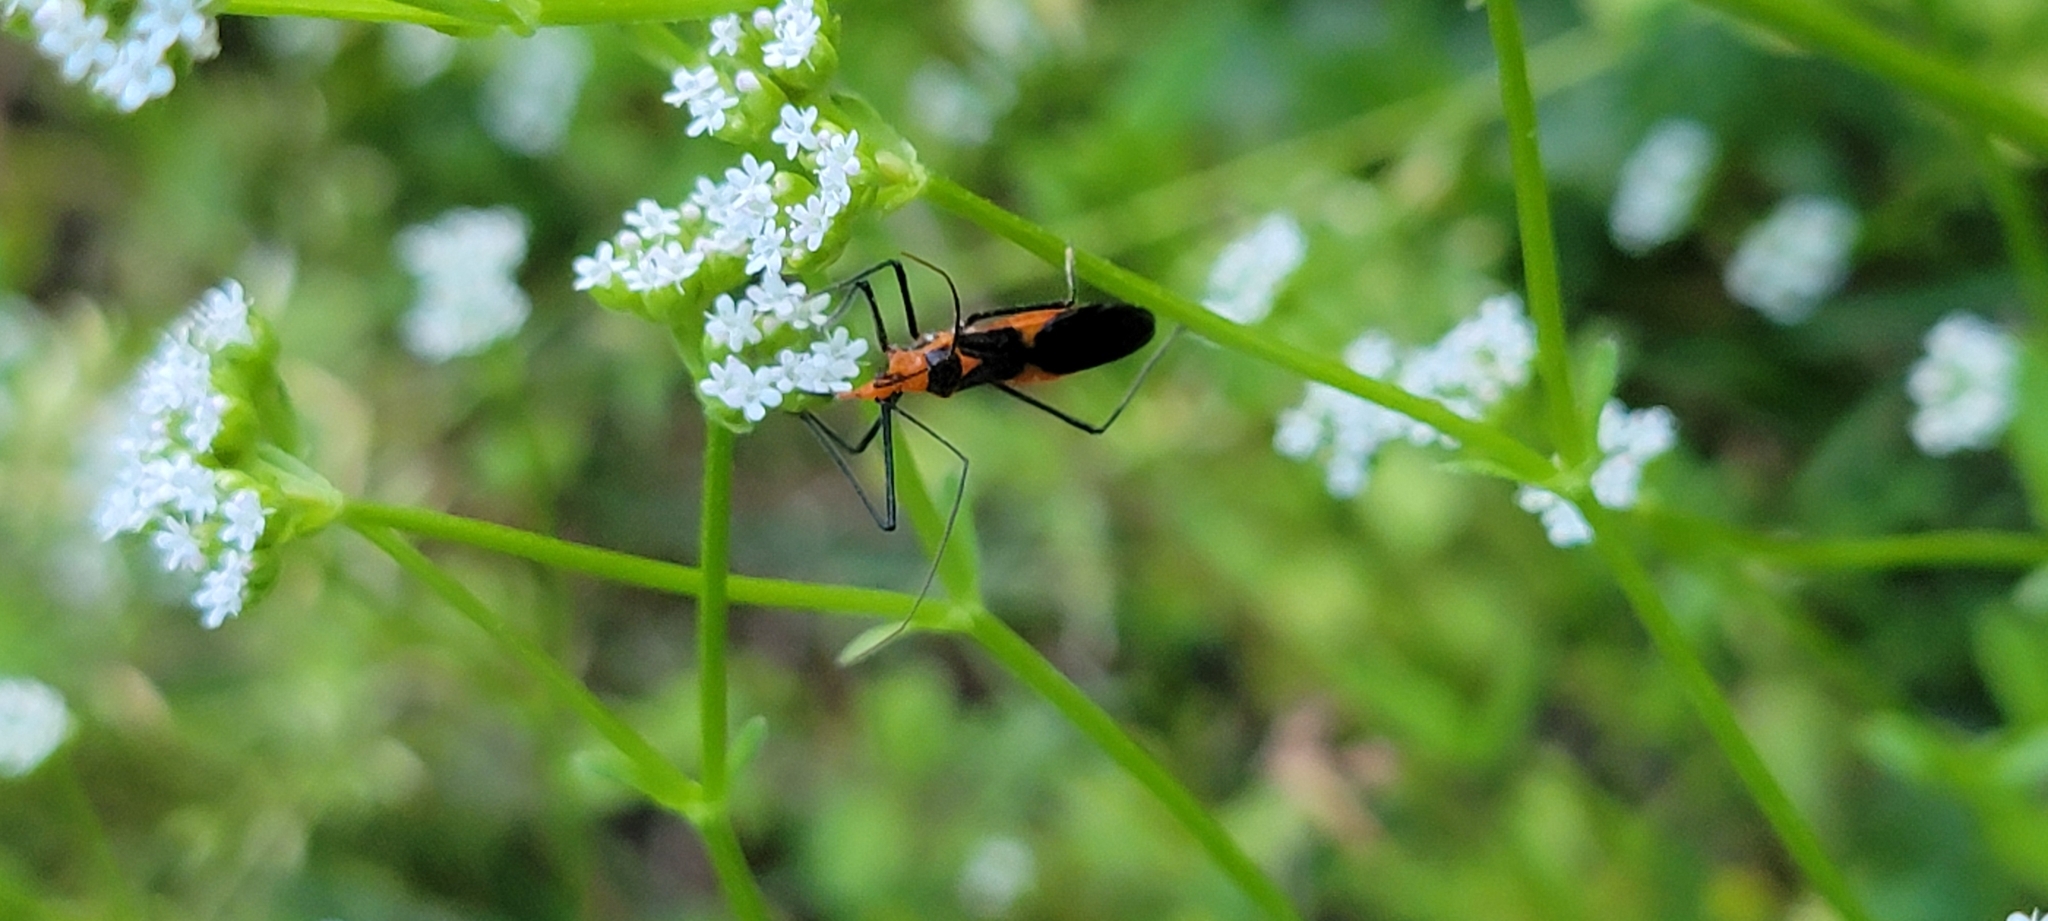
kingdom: Animalia
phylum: Arthropoda
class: Insecta
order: Hemiptera
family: Reduviidae
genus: Zelus
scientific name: Zelus longipes
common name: Milkweed assassin bug
